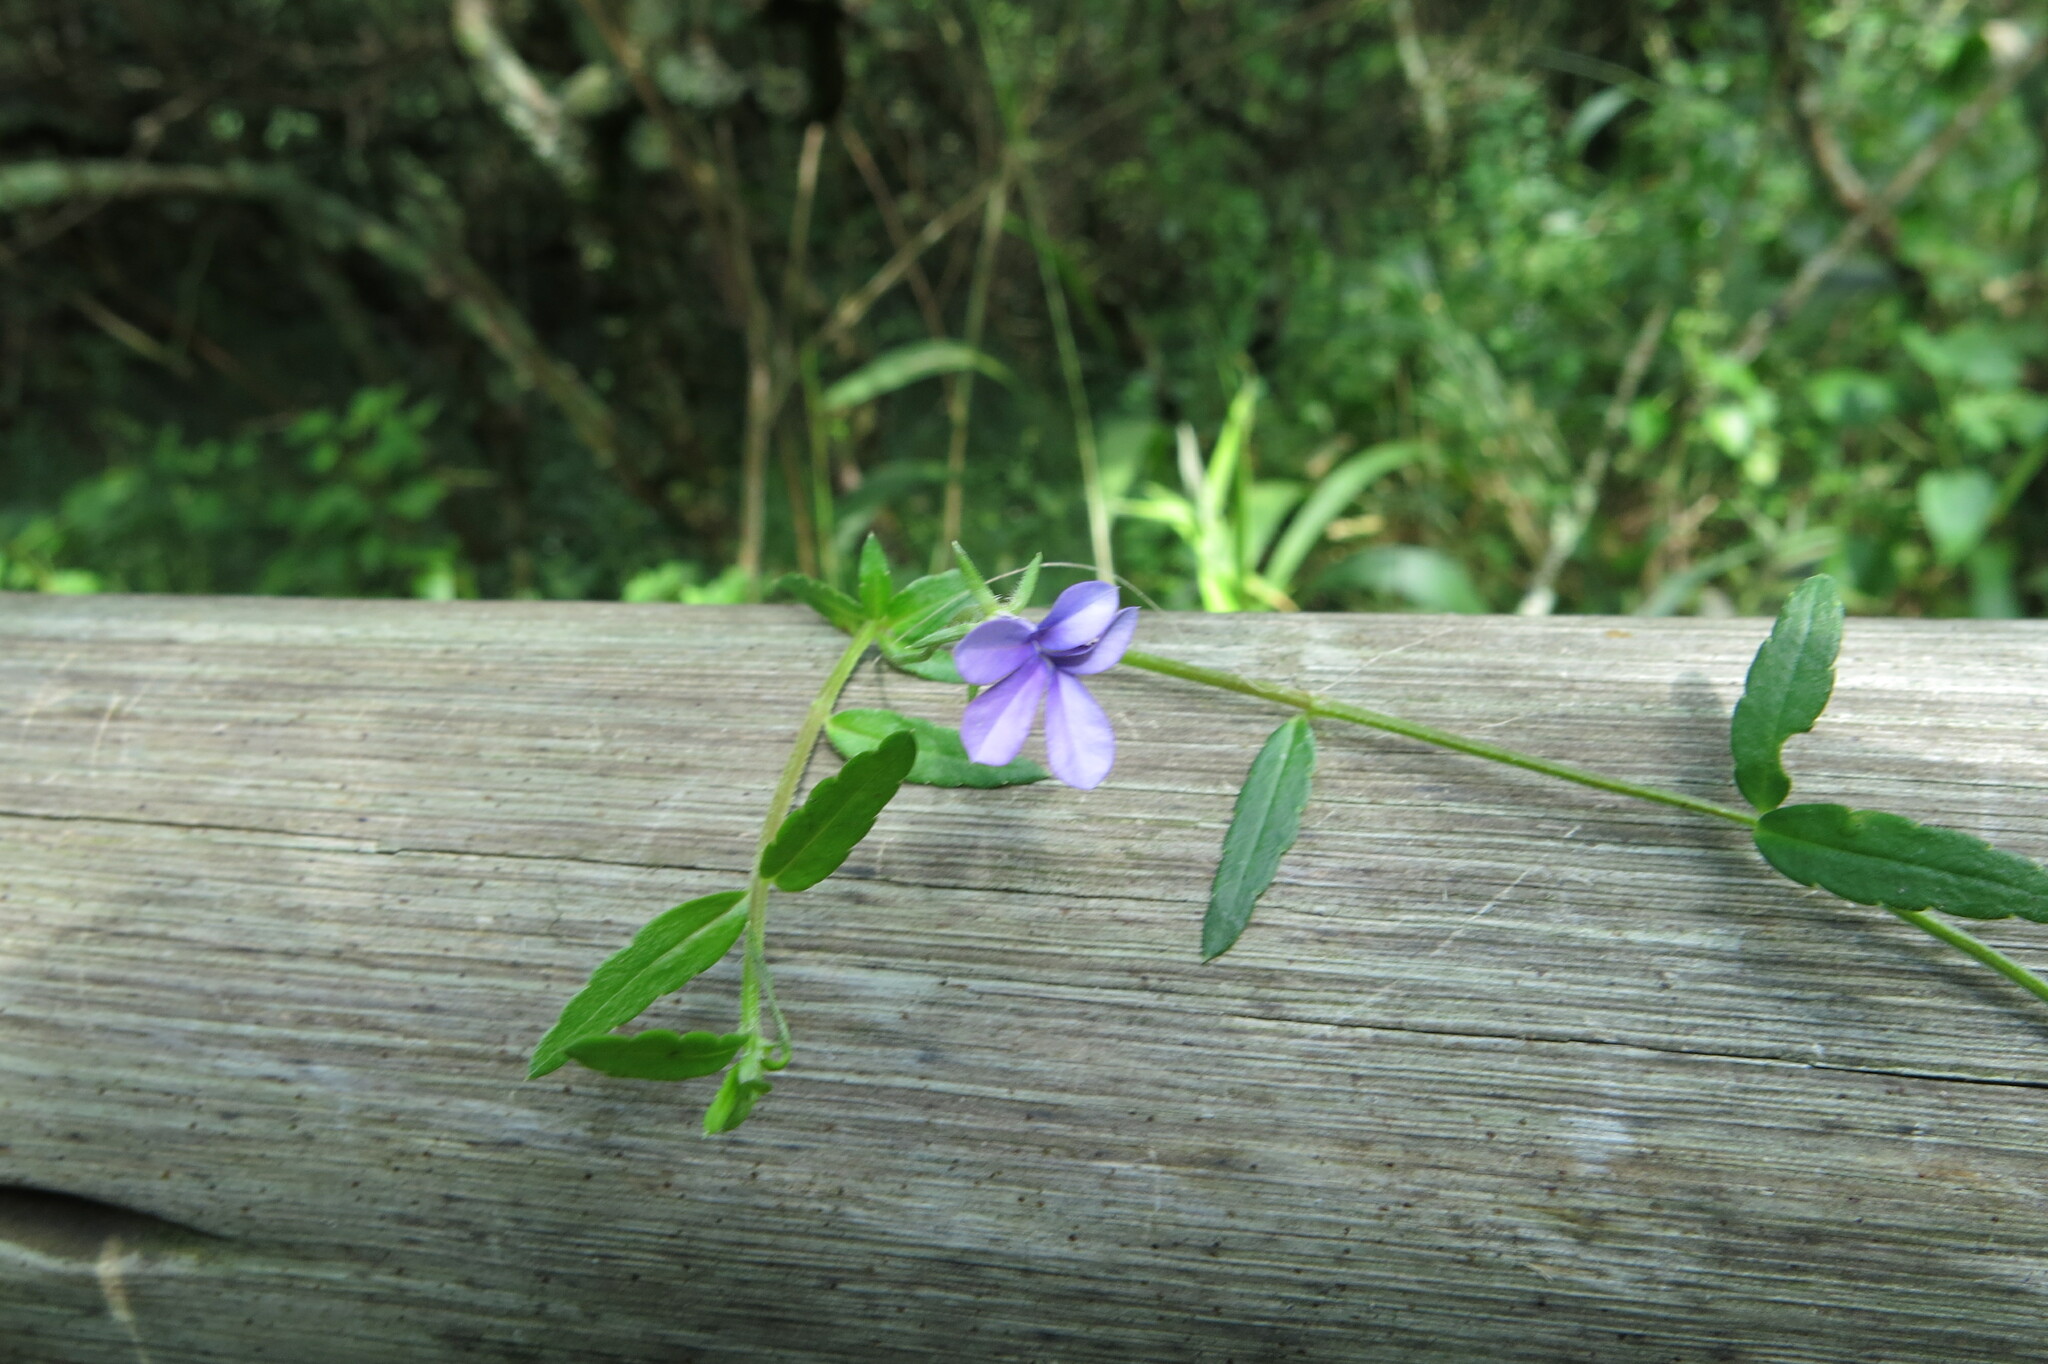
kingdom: Plantae
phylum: Tracheophyta
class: Magnoliopsida
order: Asterales
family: Campanulaceae
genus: Monopsis
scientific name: Monopsis stellarioides
